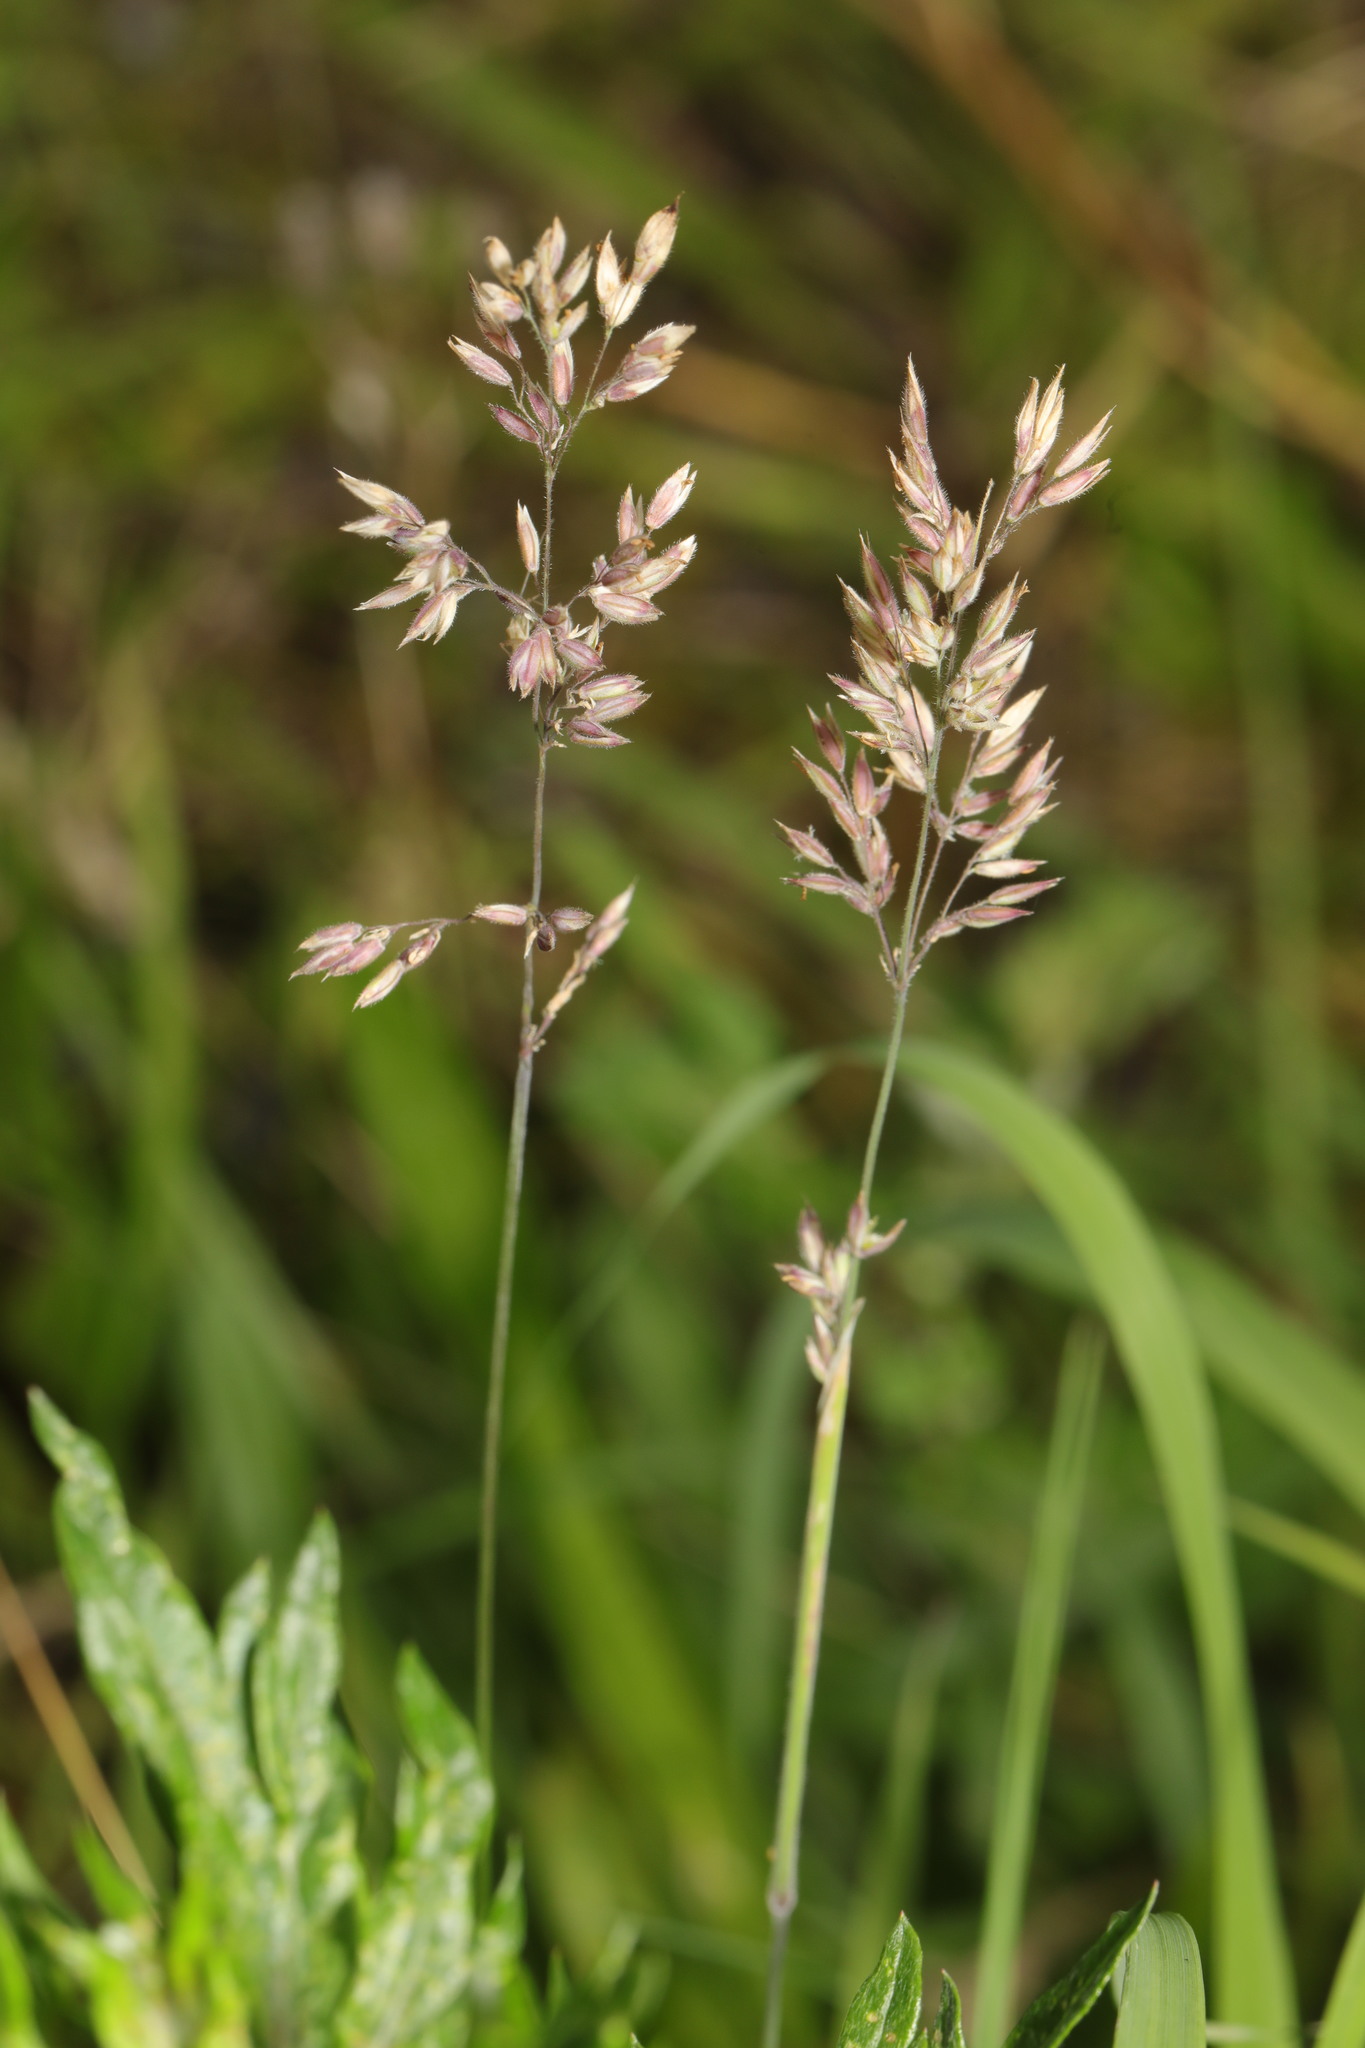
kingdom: Plantae
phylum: Tracheophyta
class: Liliopsida
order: Poales
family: Poaceae
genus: Holcus
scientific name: Holcus lanatus
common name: Yorkshire-fog
